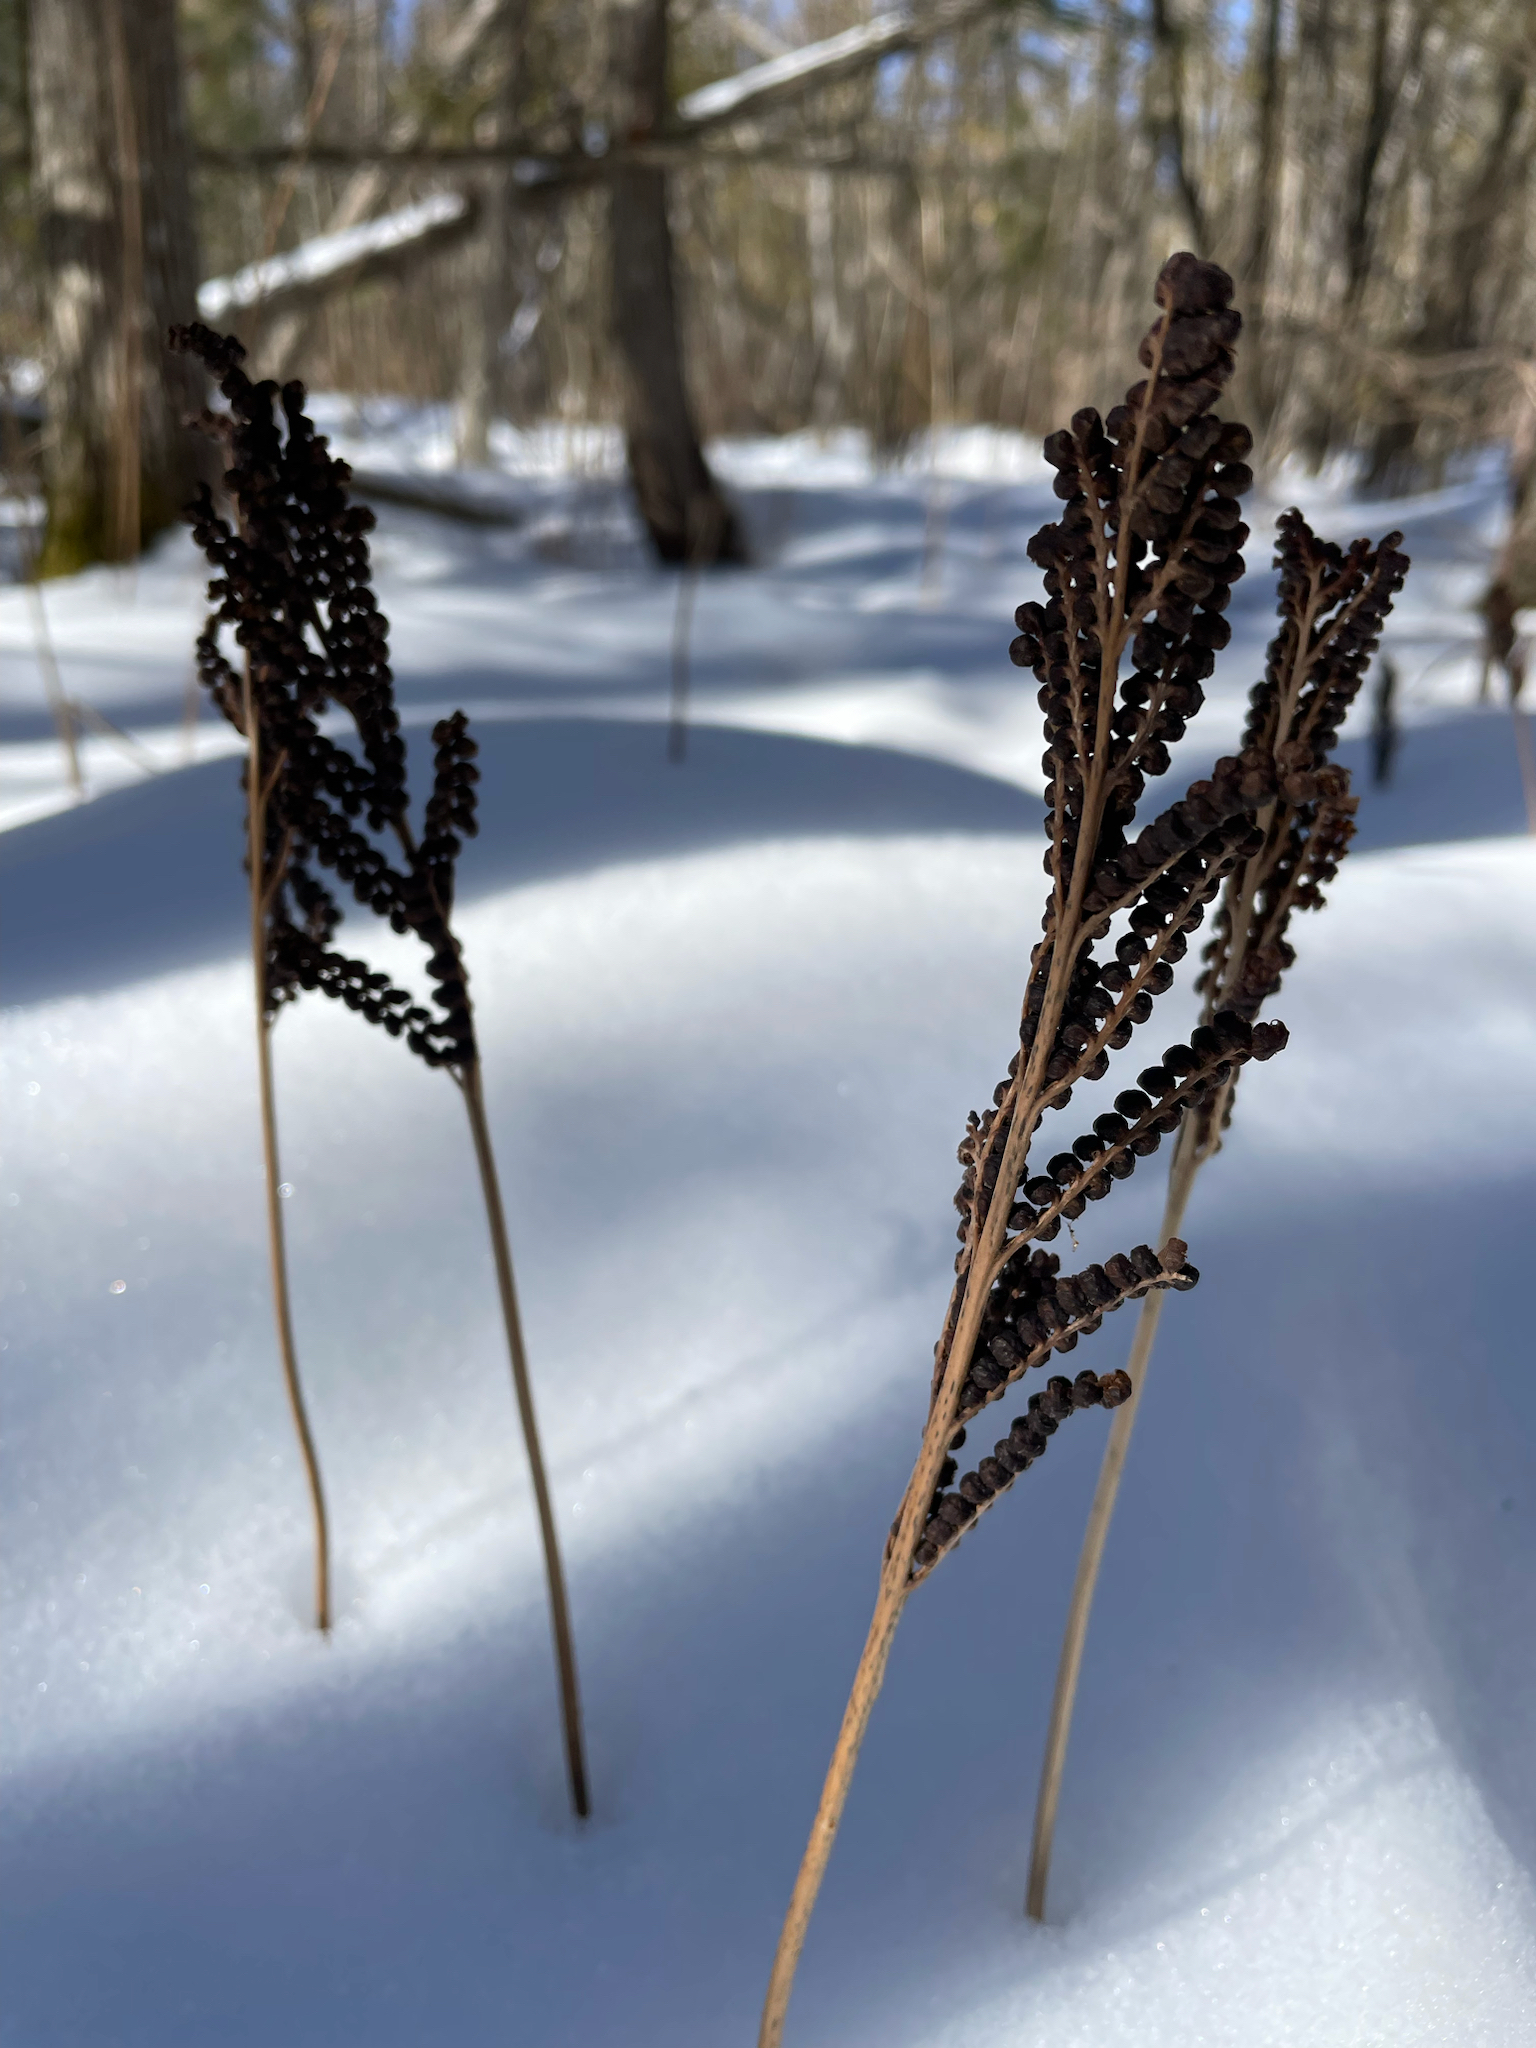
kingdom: Plantae
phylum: Tracheophyta
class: Polypodiopsida
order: Polypodiales
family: Onocleaceae
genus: Onoclea
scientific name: Onoclea sensibilis
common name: Sensitive fern
